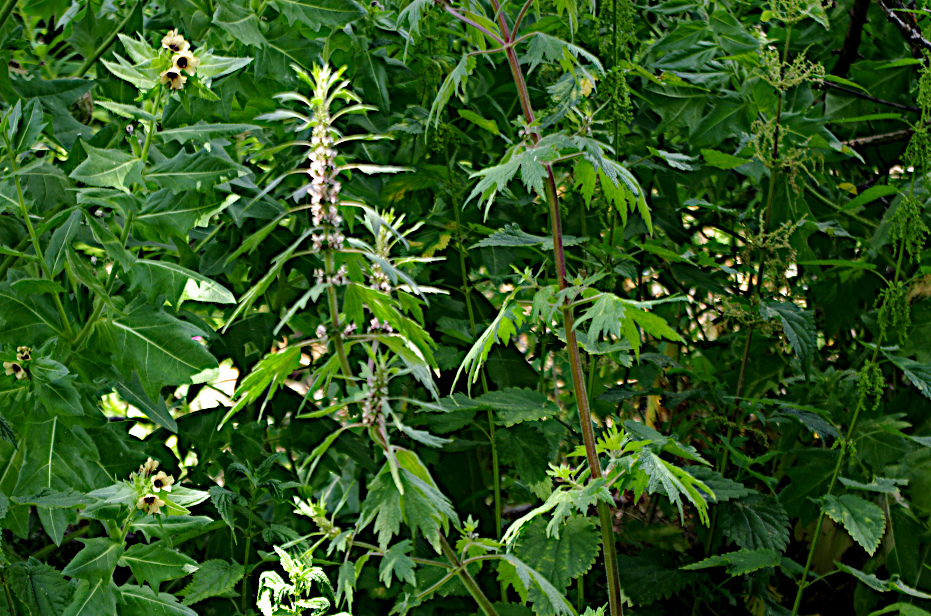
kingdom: Plantae
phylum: Tracheophyta
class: Magnoliopsida
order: Lamiales
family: Lamiaceae
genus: Leonurus
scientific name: Leonurus quinquelobatus
